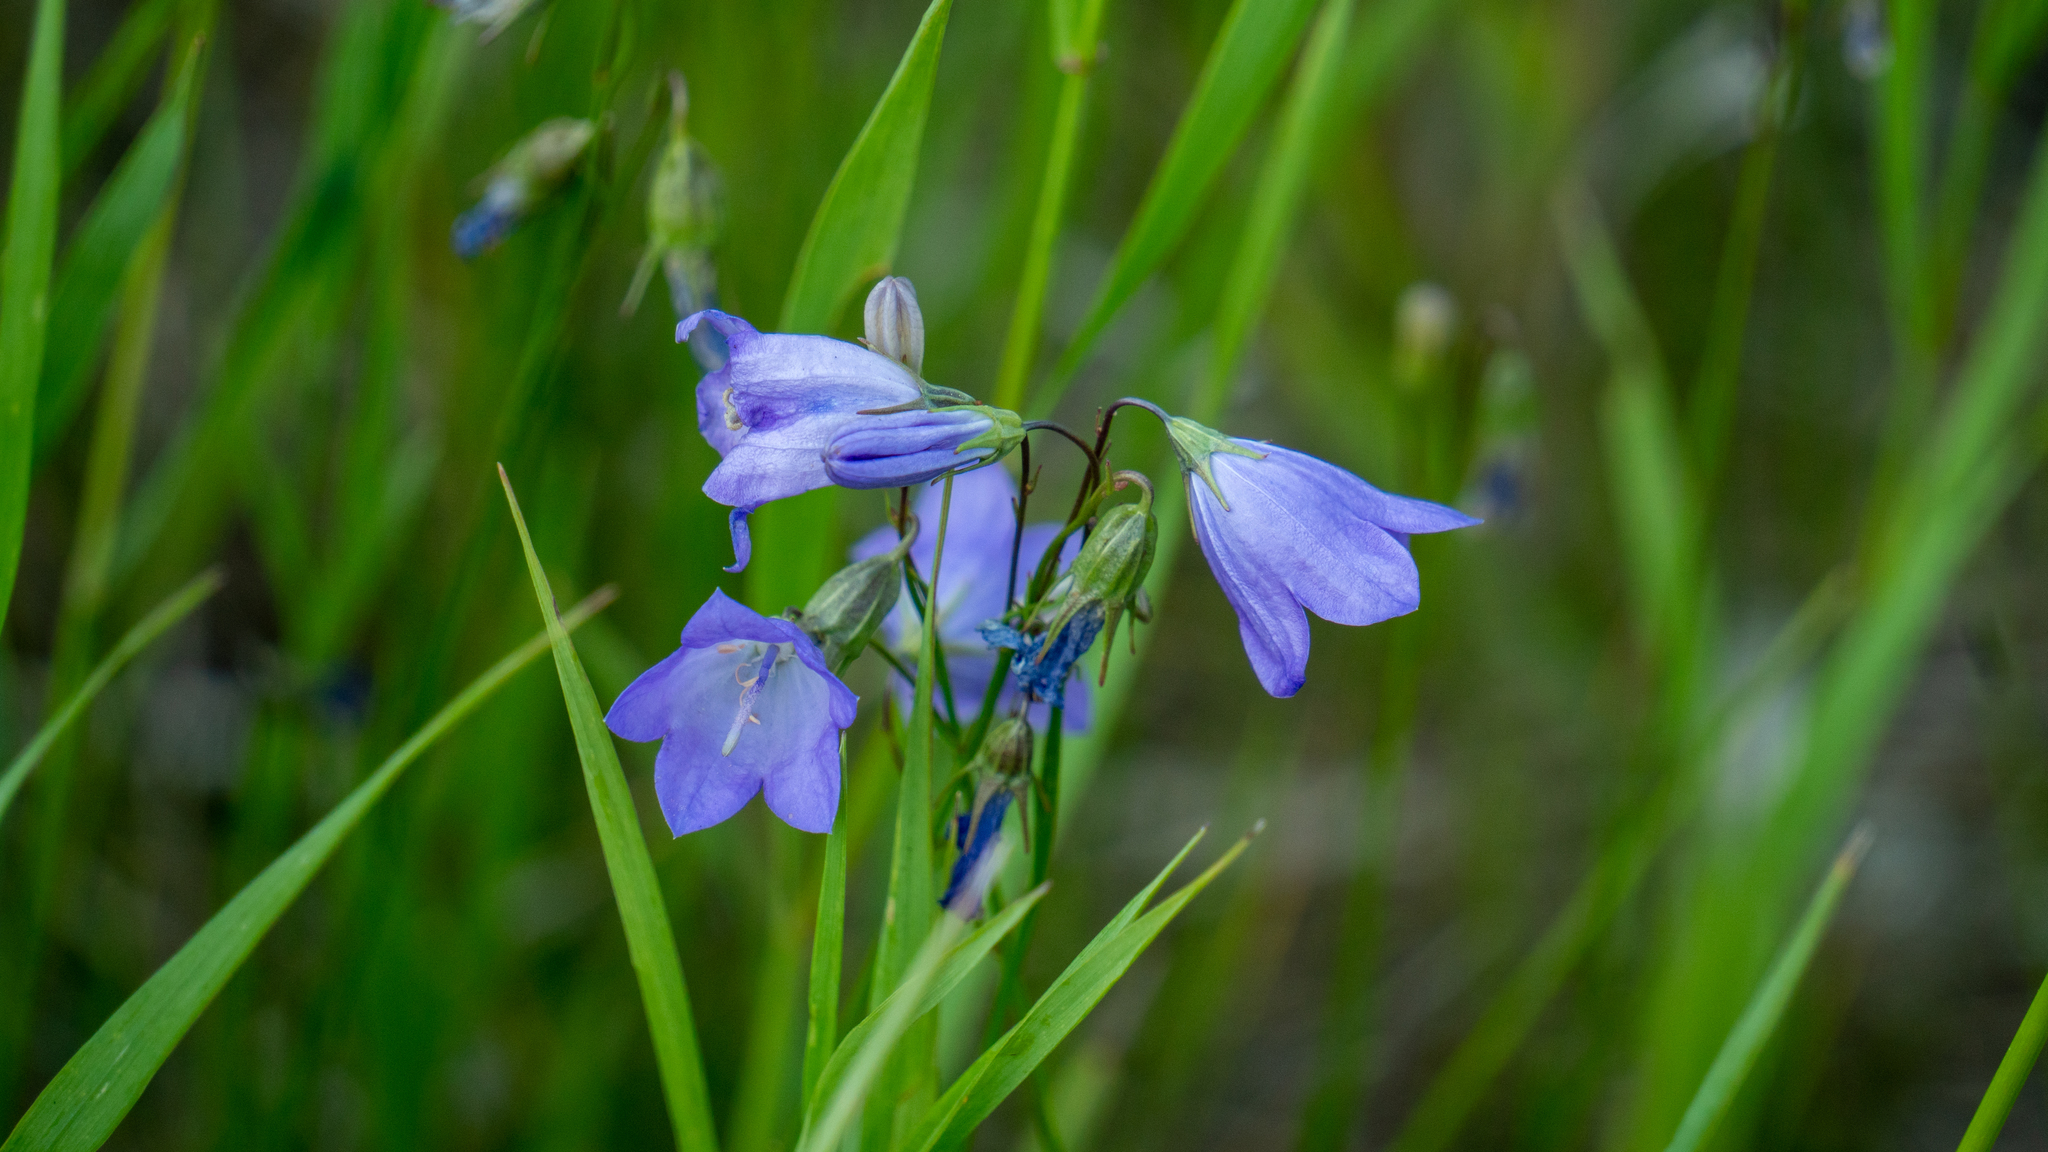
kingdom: Plantae
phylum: Tracheophyta
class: Magnoliopsida
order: Asterales
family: Campanulaceae
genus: Campanula
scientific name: Campanula alaskana
